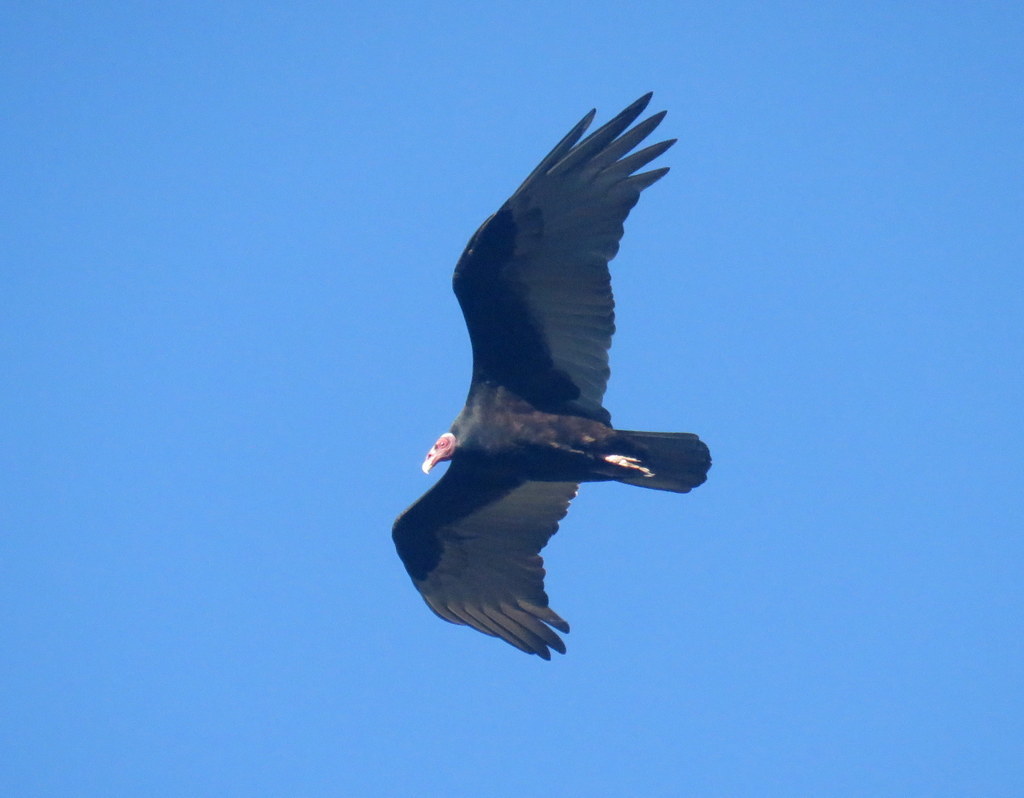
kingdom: Animalia
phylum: Chordata
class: Aves
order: Accipitriformes
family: Cathartidae
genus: Cathartes
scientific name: Cathartes aura
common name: Turkey vulture
